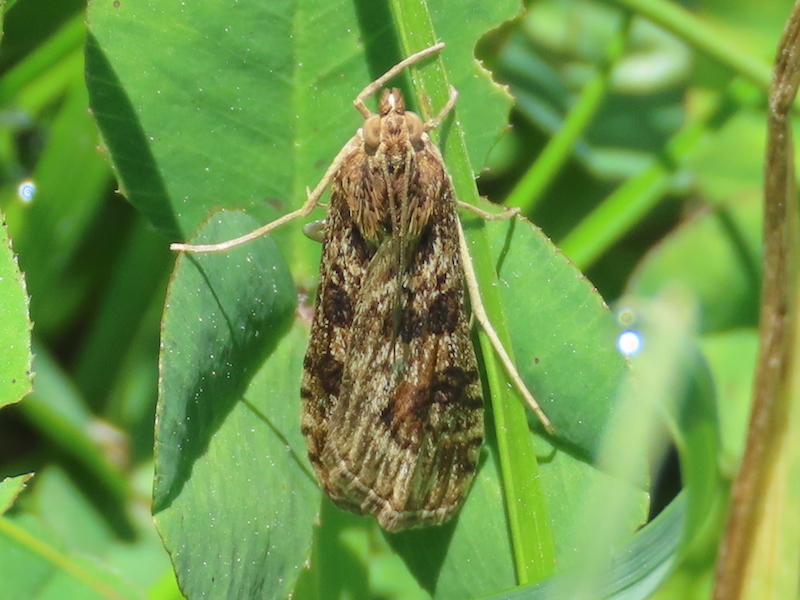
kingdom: Animalia
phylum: Arthropoda
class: Insecta
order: Lepidoptera
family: Crambidae
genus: Nomophila
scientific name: Nomophila nearctica
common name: American rush veneer
